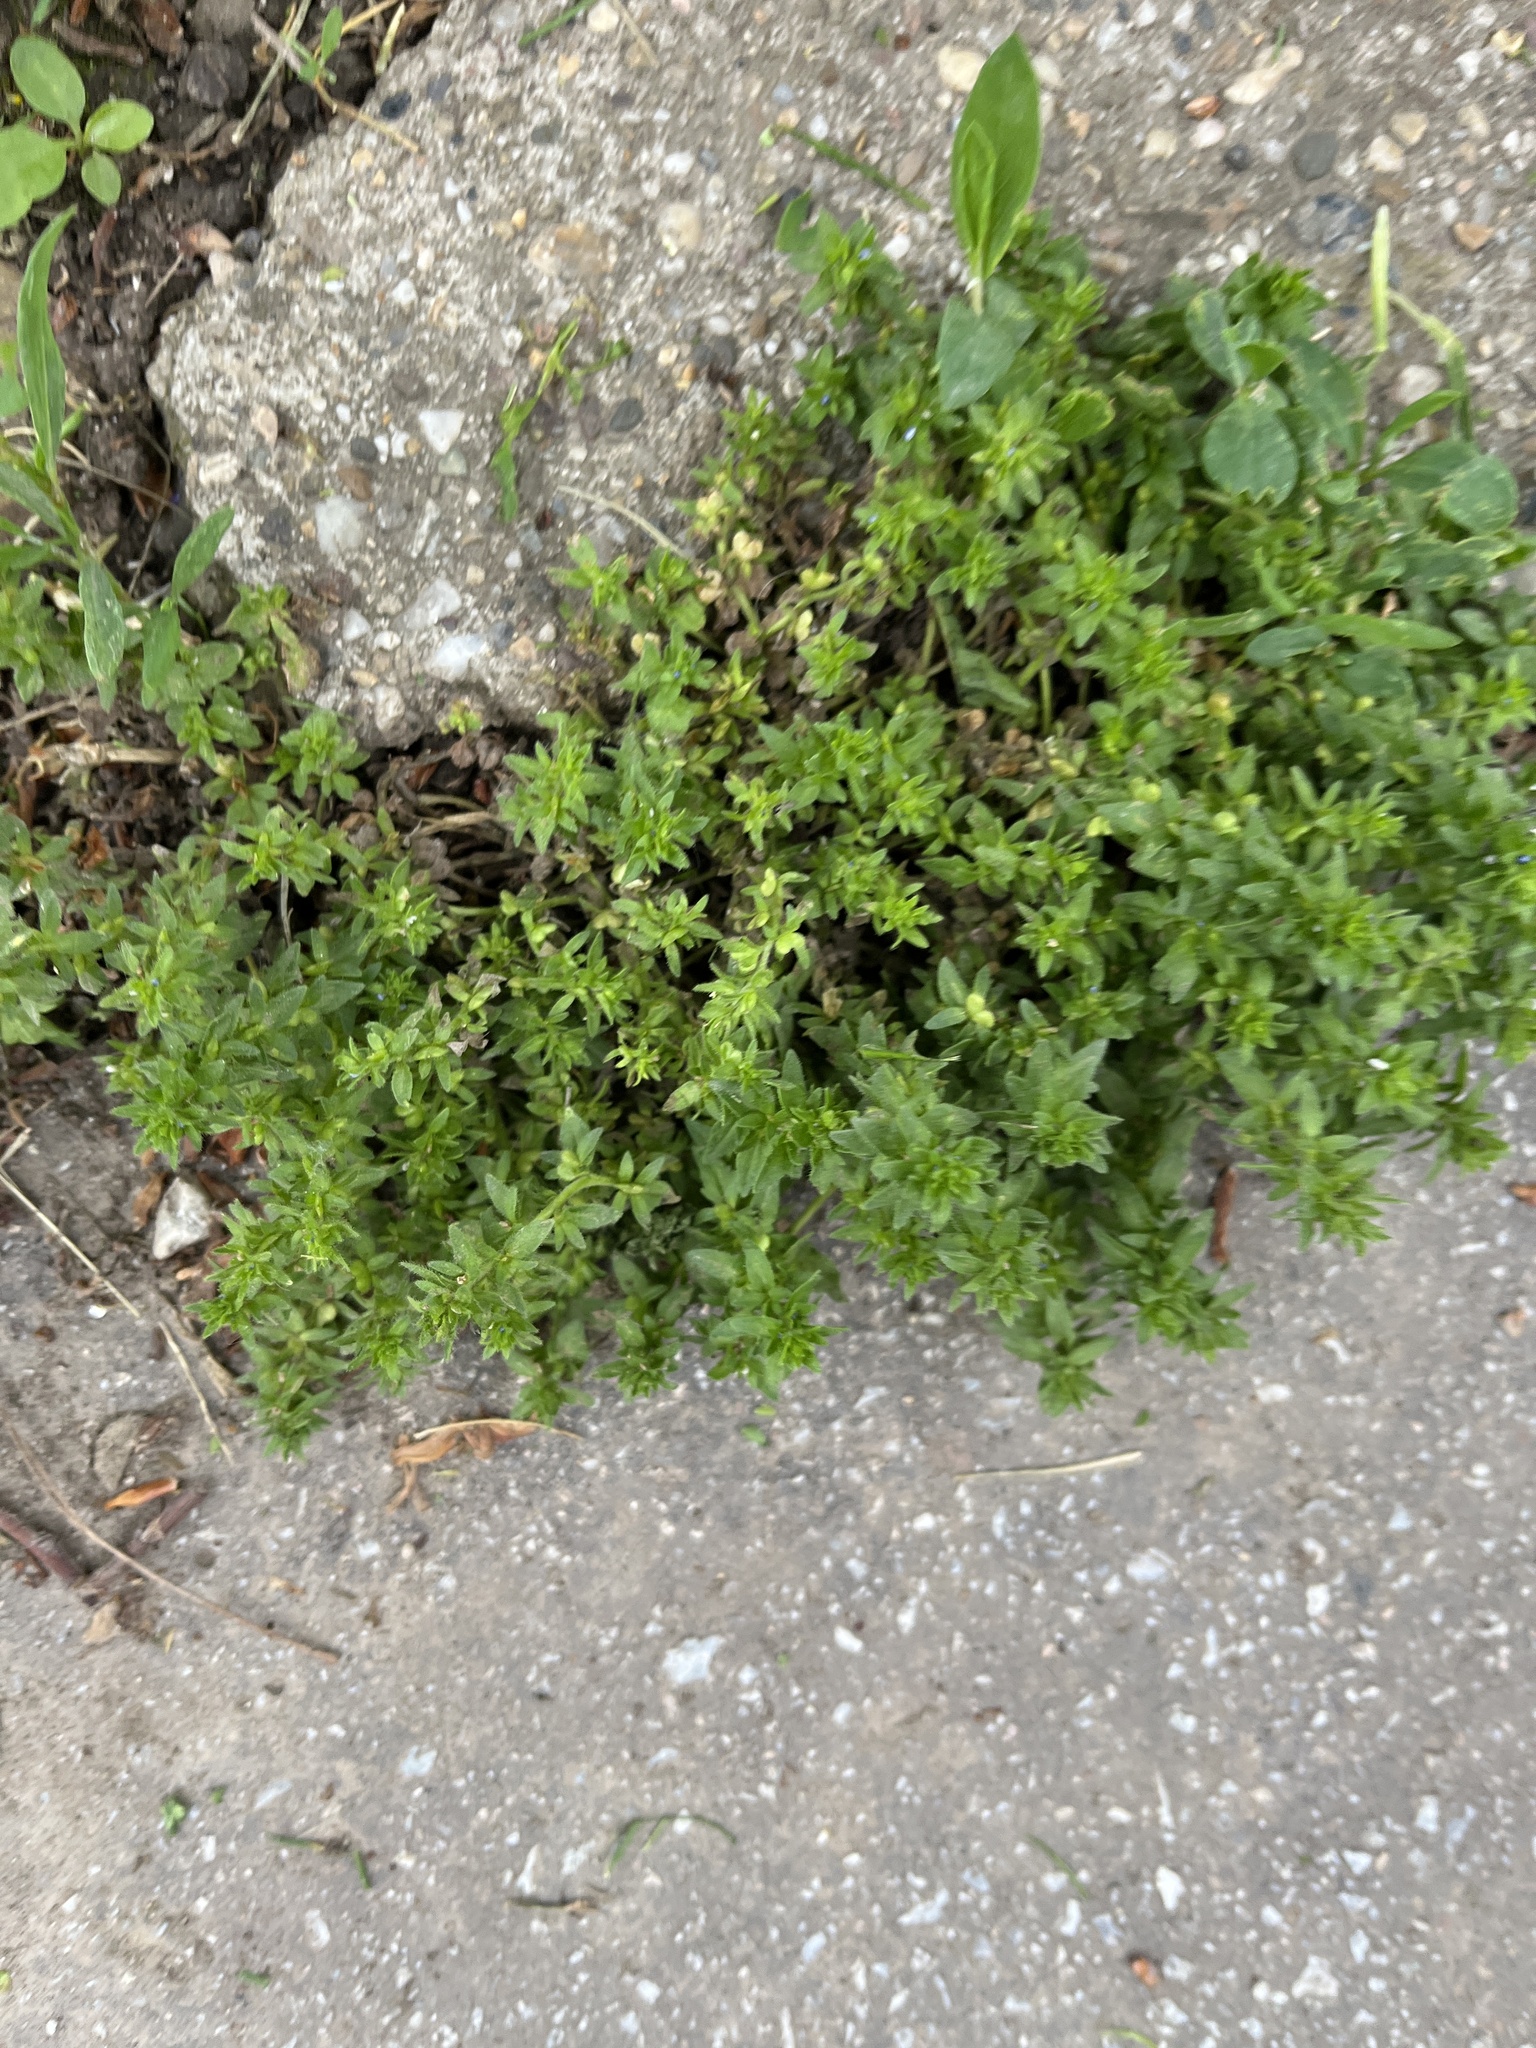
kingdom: Plantae
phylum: Tracheophyta
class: Magnoliopsida
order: Lamiales
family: Plantaginaceae
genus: Veronica
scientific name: Veronica arvensis
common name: Corn speedwell
